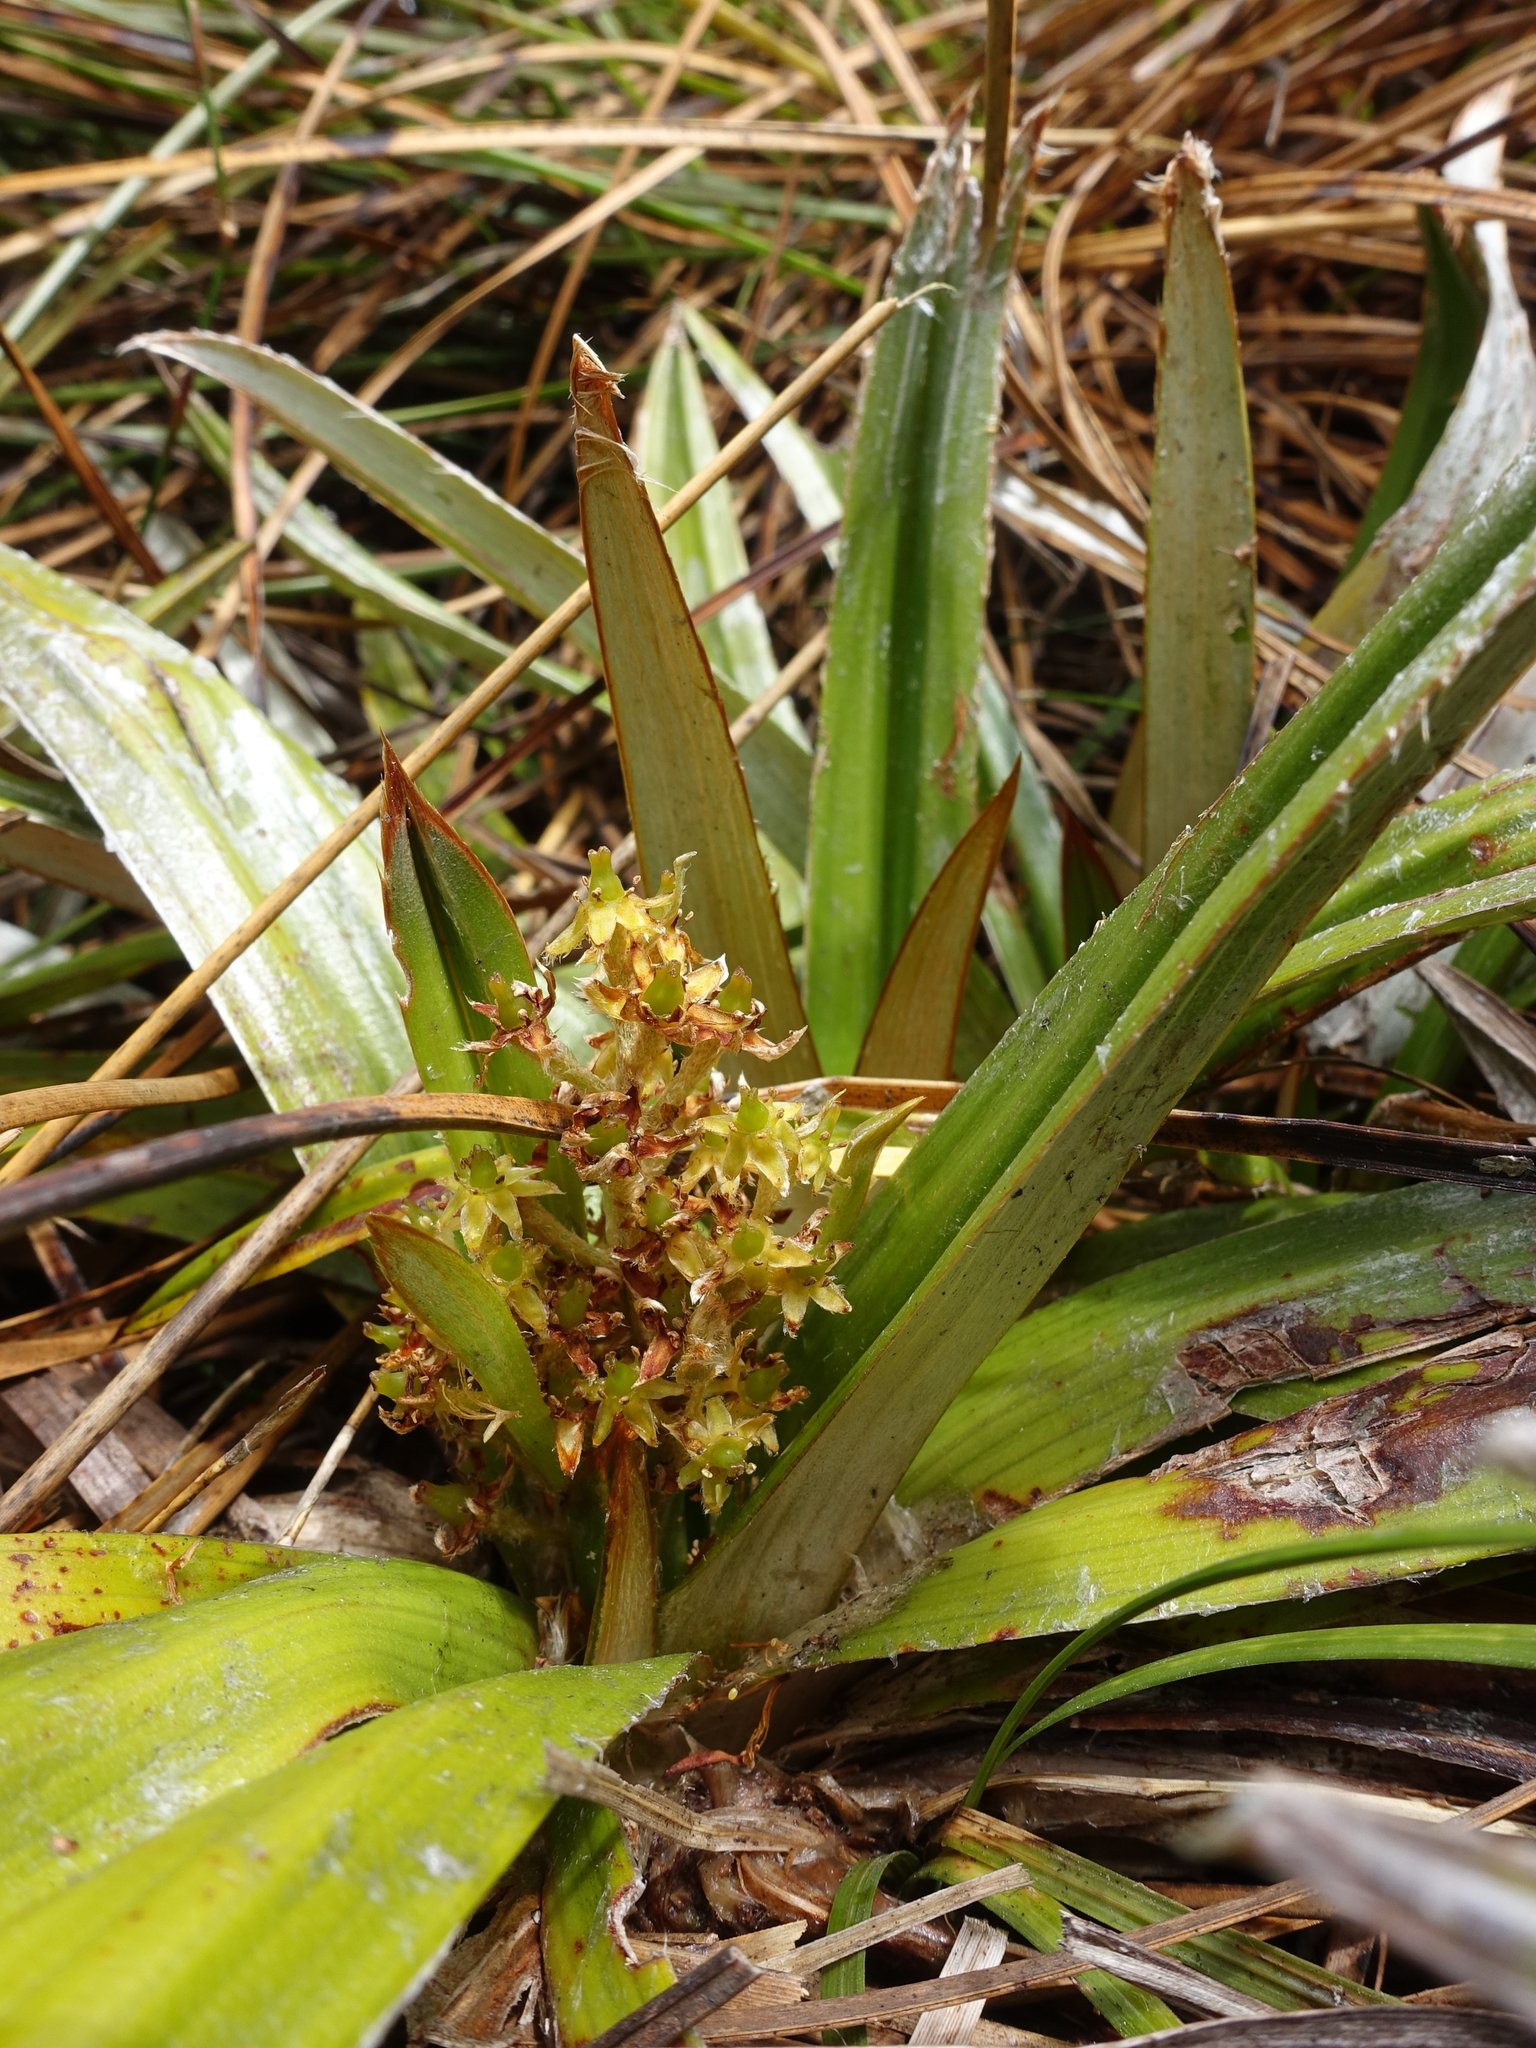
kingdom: Plantae
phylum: Tracheophyta
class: Liliopsida
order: Asparagales
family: Asteliaceae
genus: Astelia
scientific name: Astelia alpina
